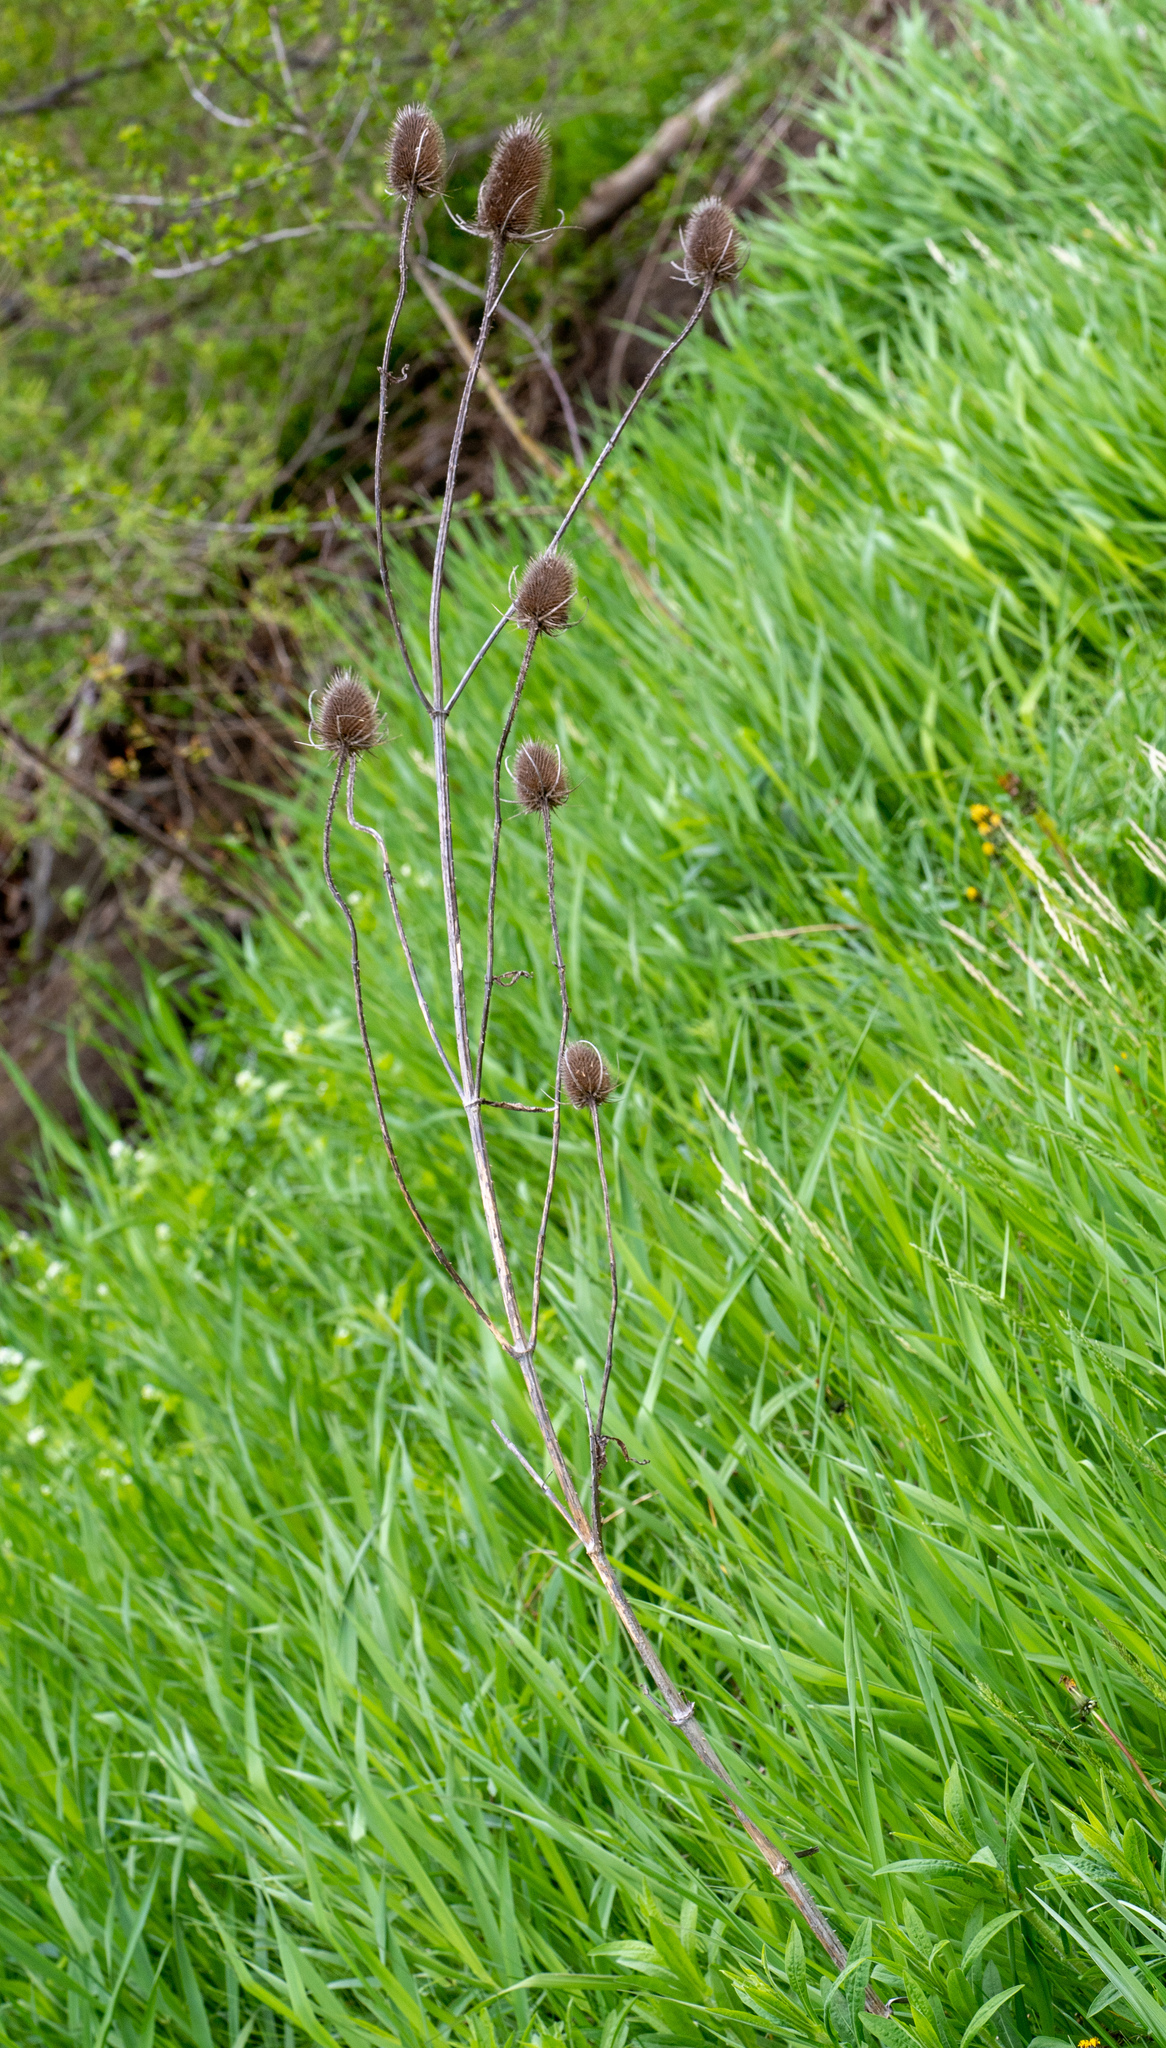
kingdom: Plantae
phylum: Tracheophyta
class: Magnoliopsida
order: Dipsacales
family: Caprifoliaceae
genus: Dipsacus
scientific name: Dipsacus fullonum
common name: Teasel
